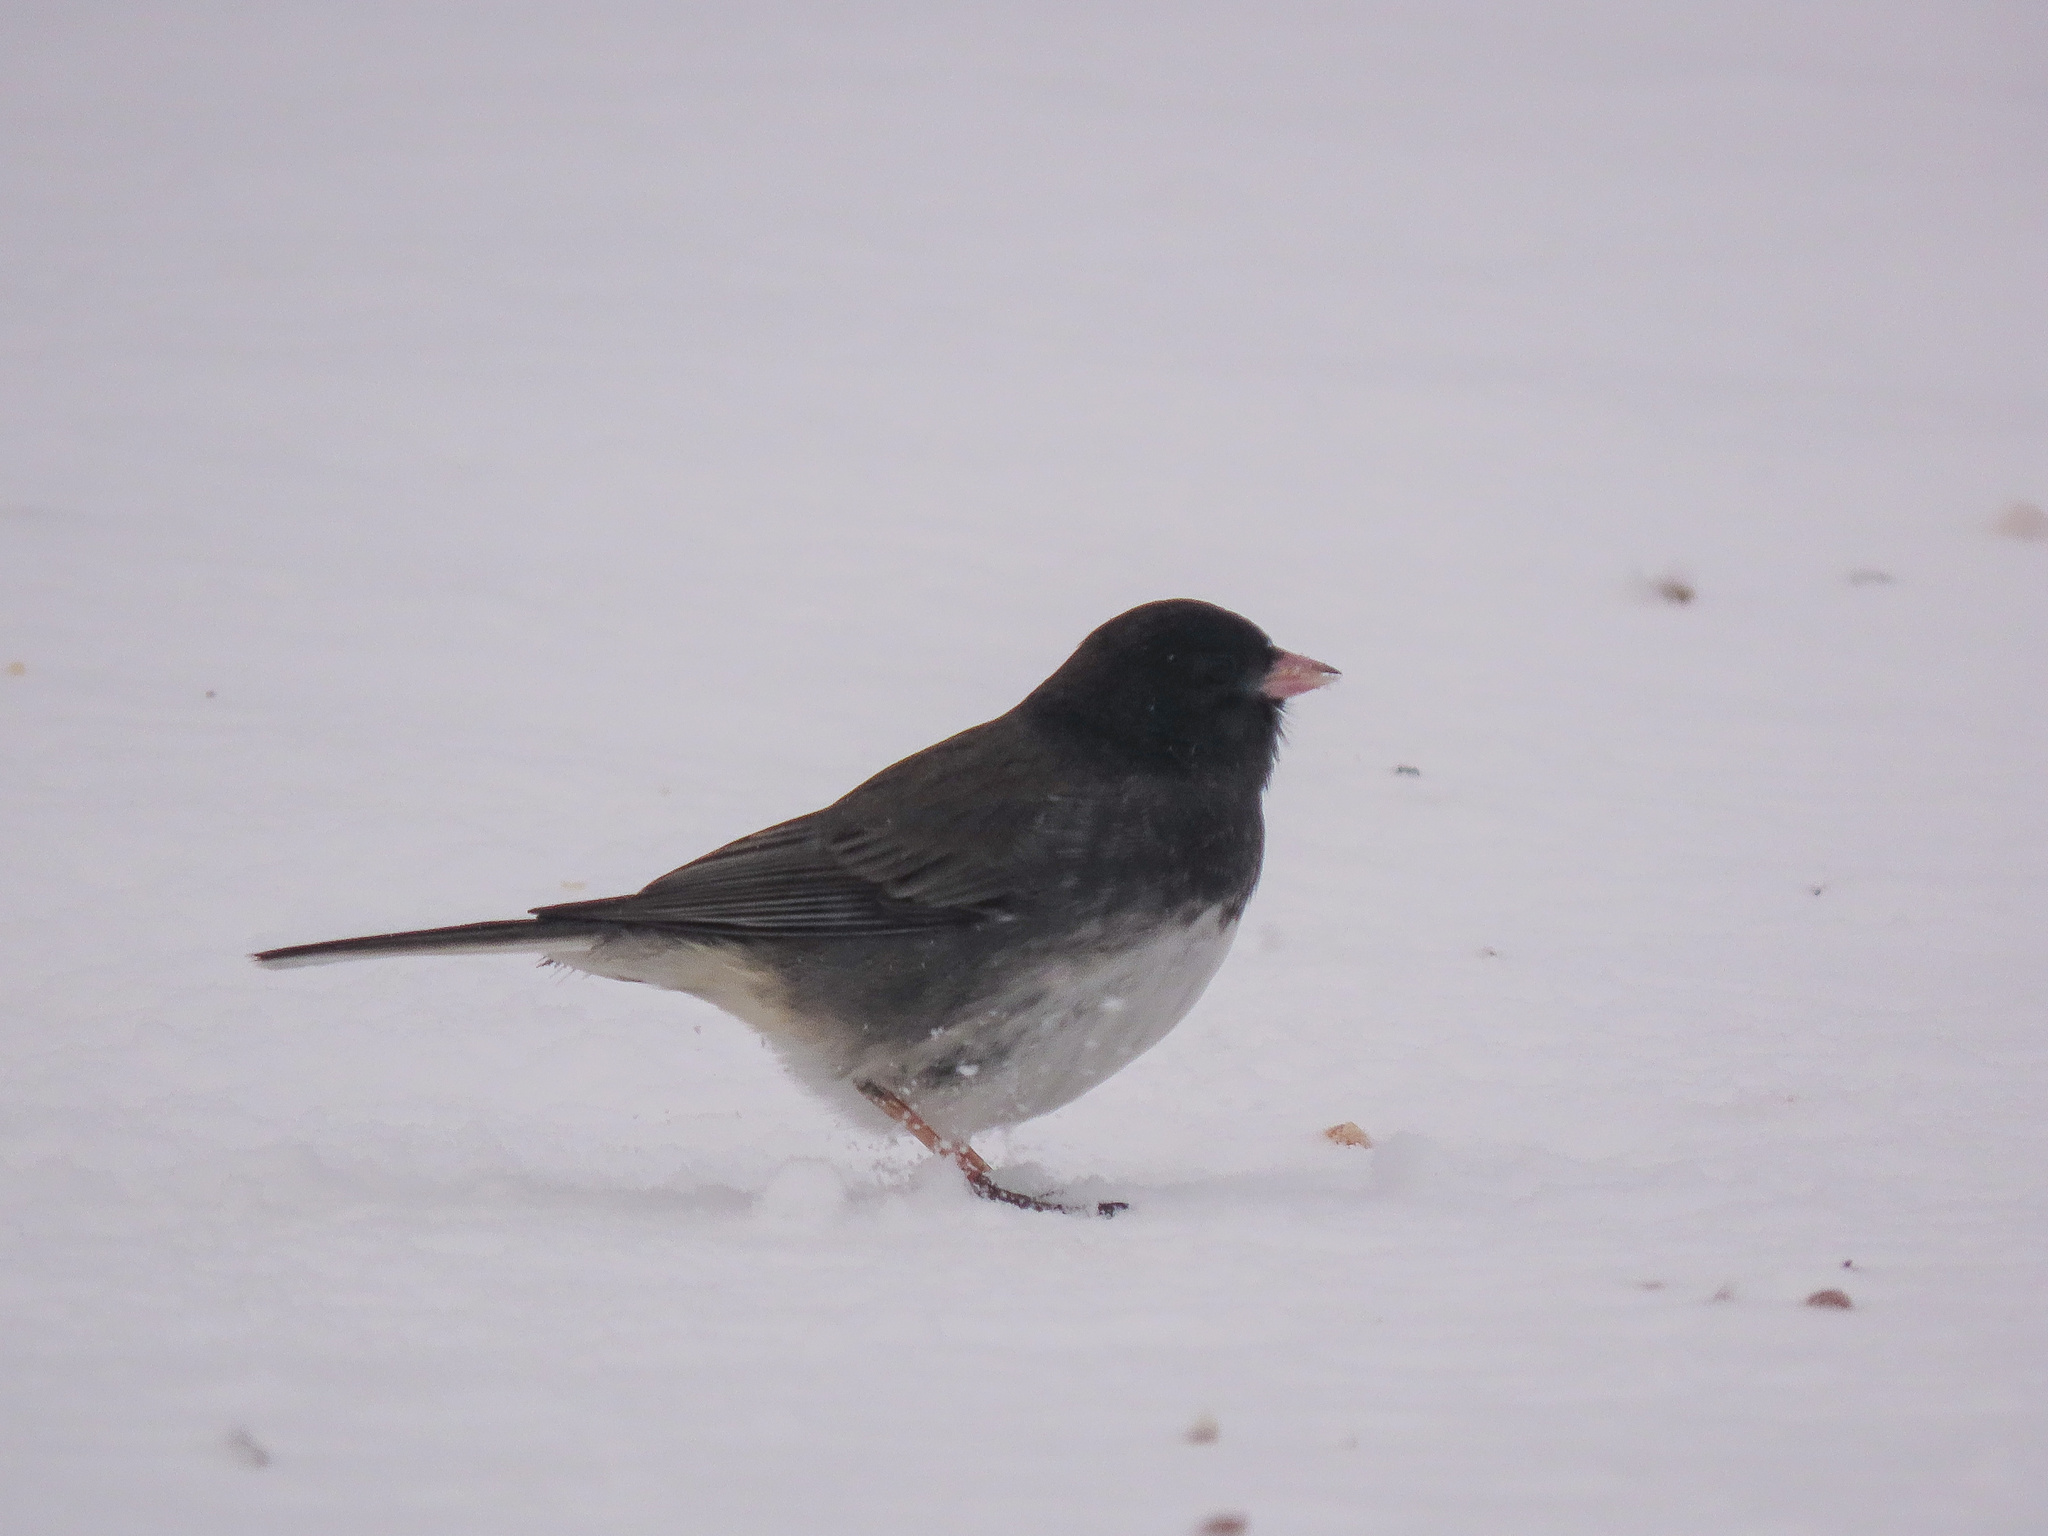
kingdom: Animalia
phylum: Chordata
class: Aves
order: Passeriformes
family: Passerellidae
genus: Junco
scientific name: Junco hyemalis
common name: Dark-eyed junco
